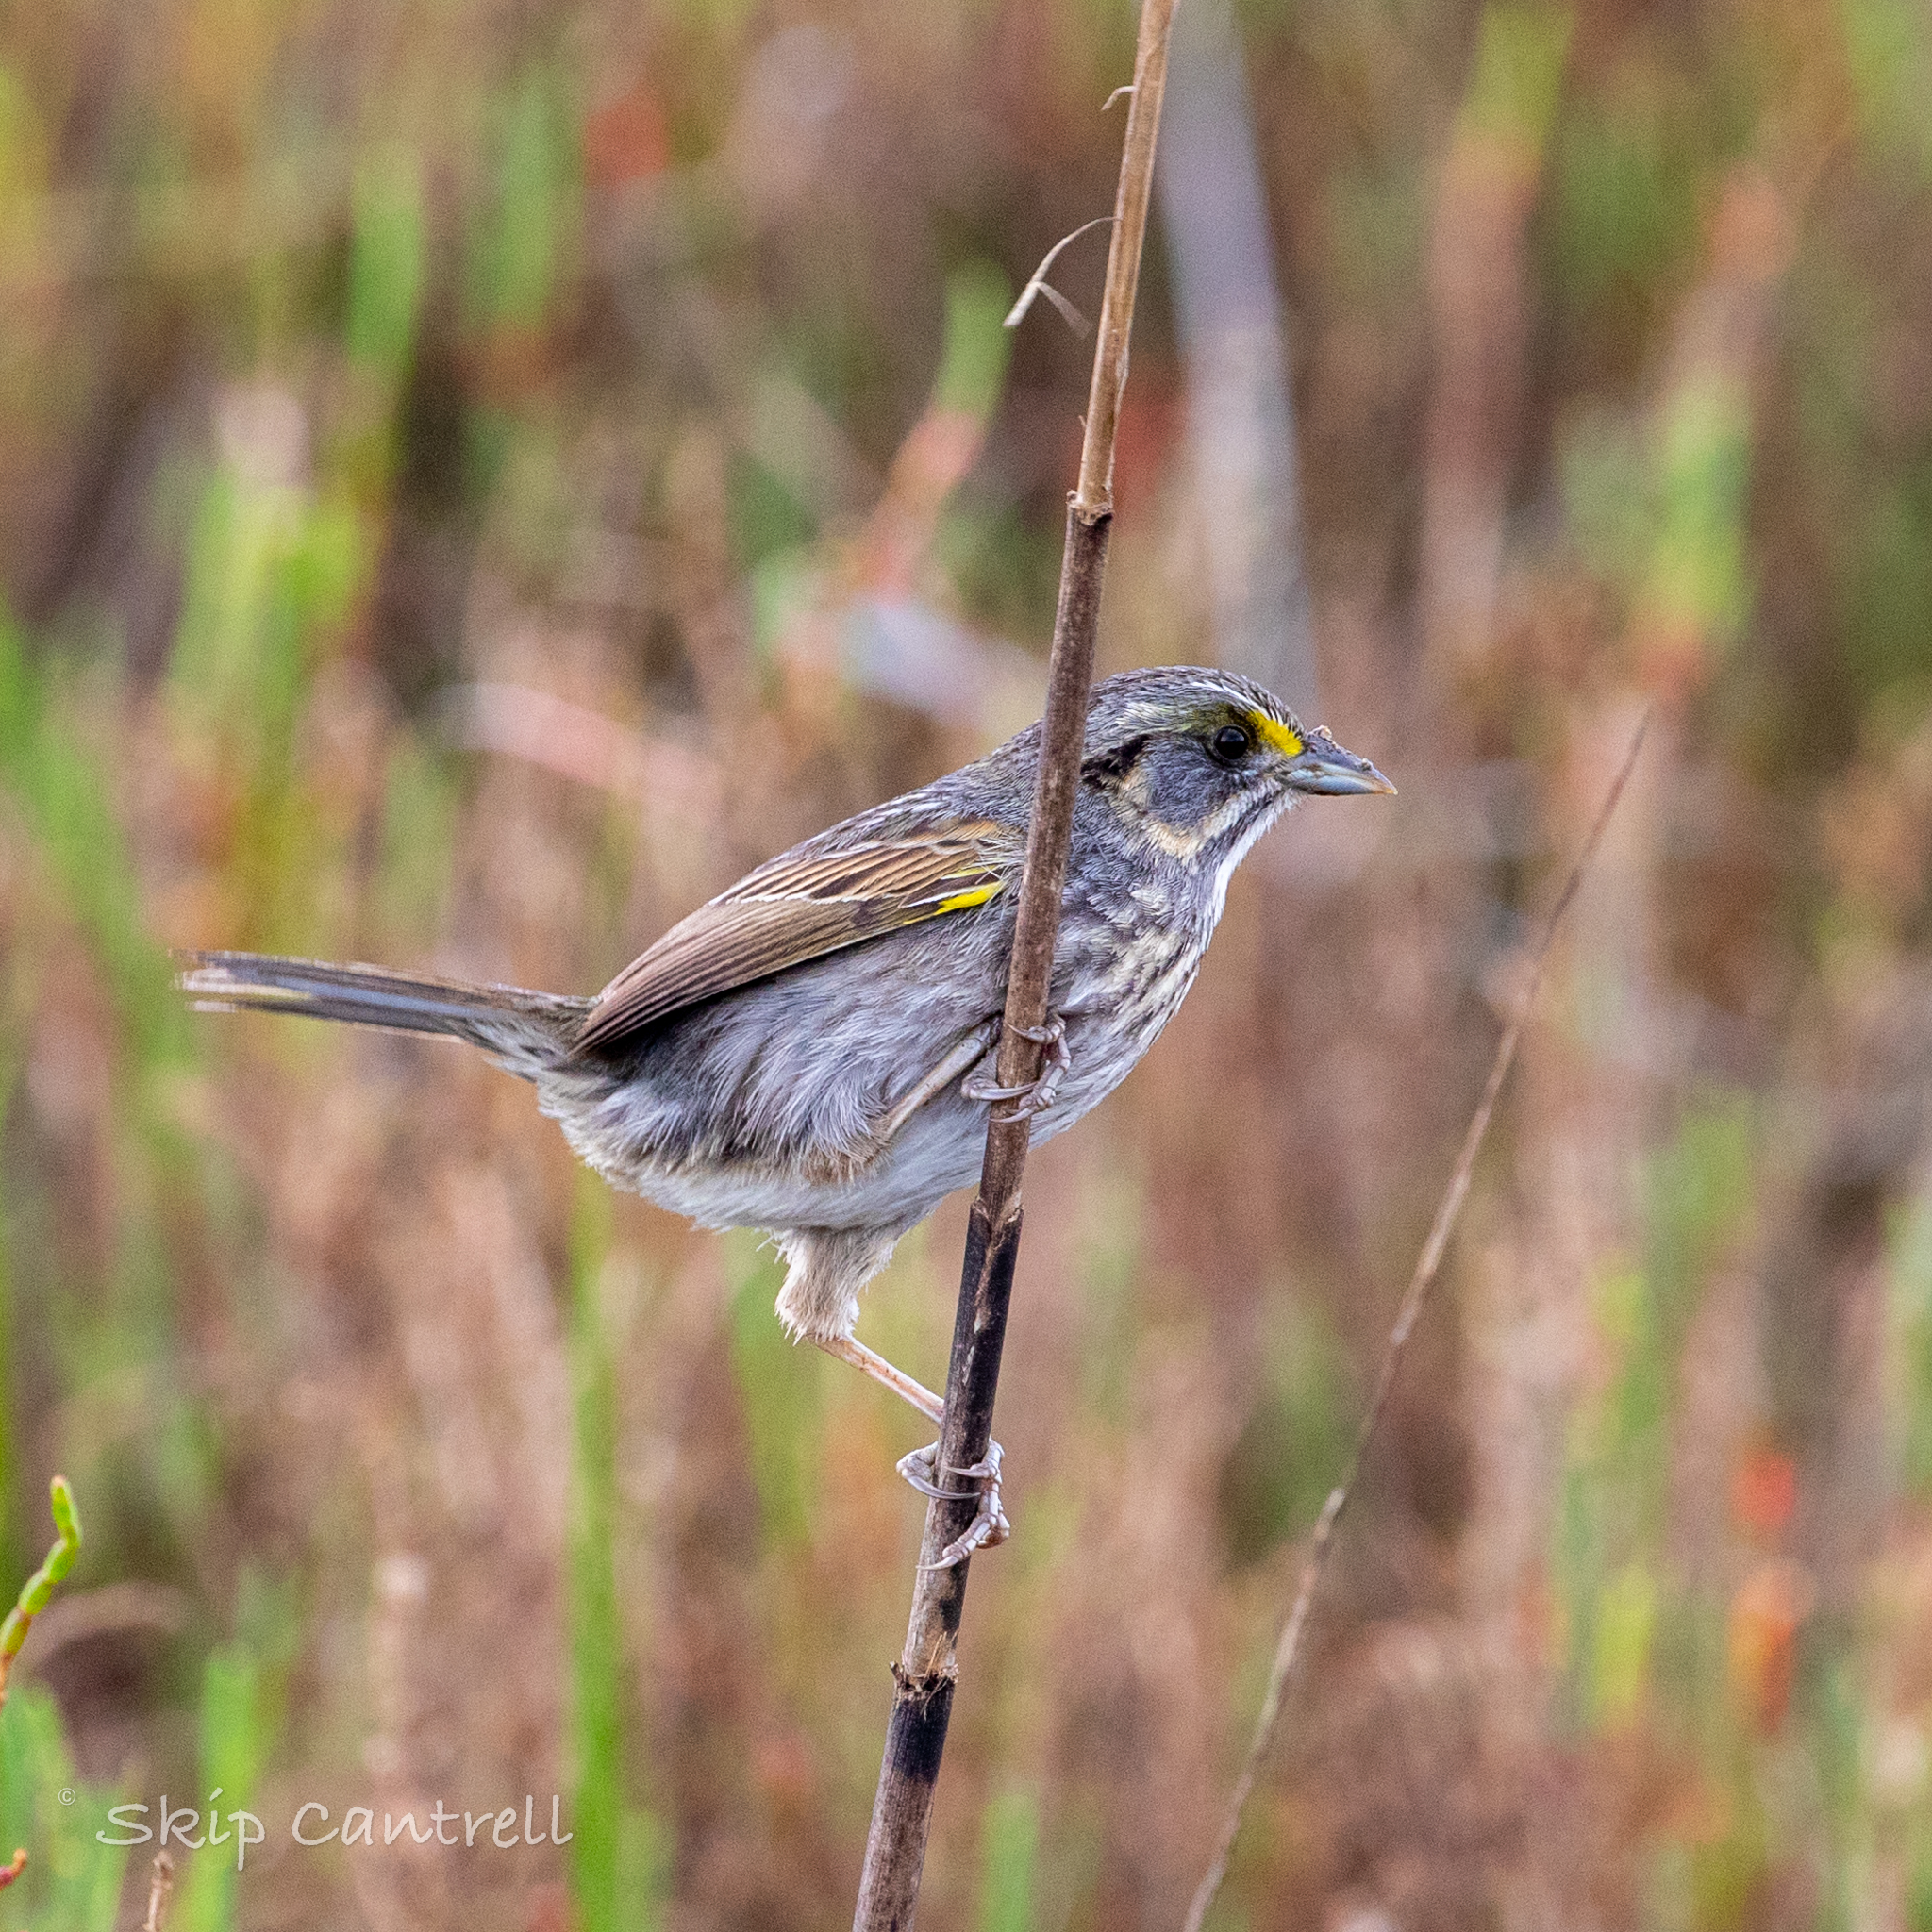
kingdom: Animalia
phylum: Chordata
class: Aves
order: Passeriformes
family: Passerellidae
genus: Ammospiza
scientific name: Ammospiza maritima
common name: Seaside sparrow
